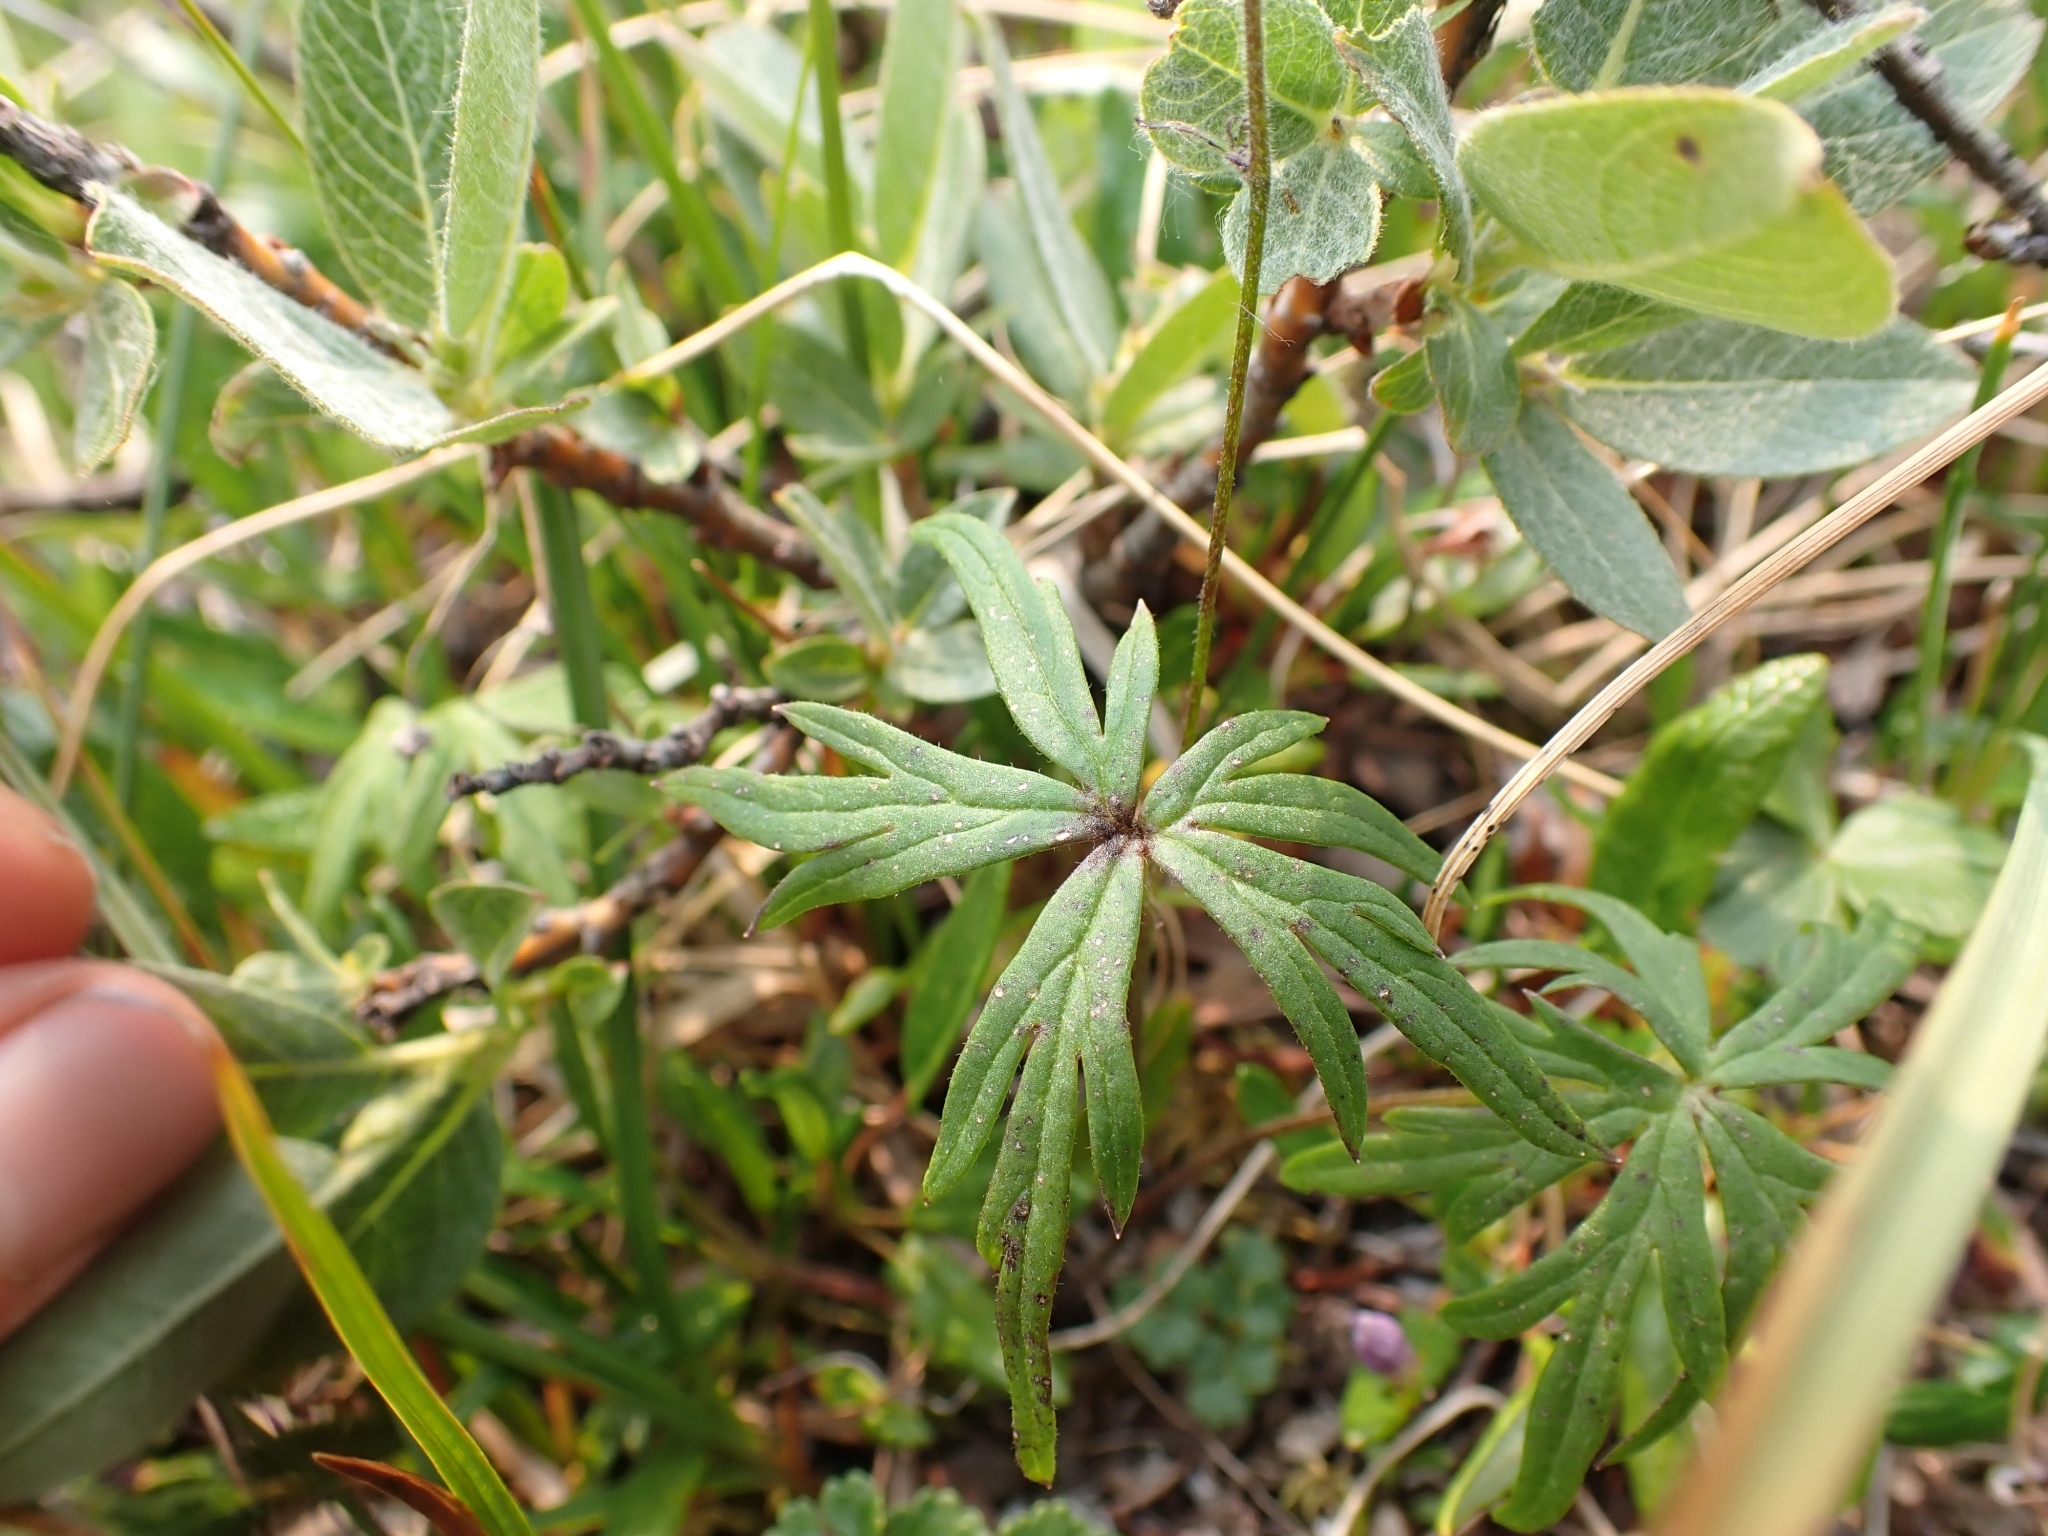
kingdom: Plantae
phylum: Tracheophyta
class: Magnoliopsida
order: Ranunculales
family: Ranunculaceae
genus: Aconitum
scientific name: Aconitum delphiniifolium
